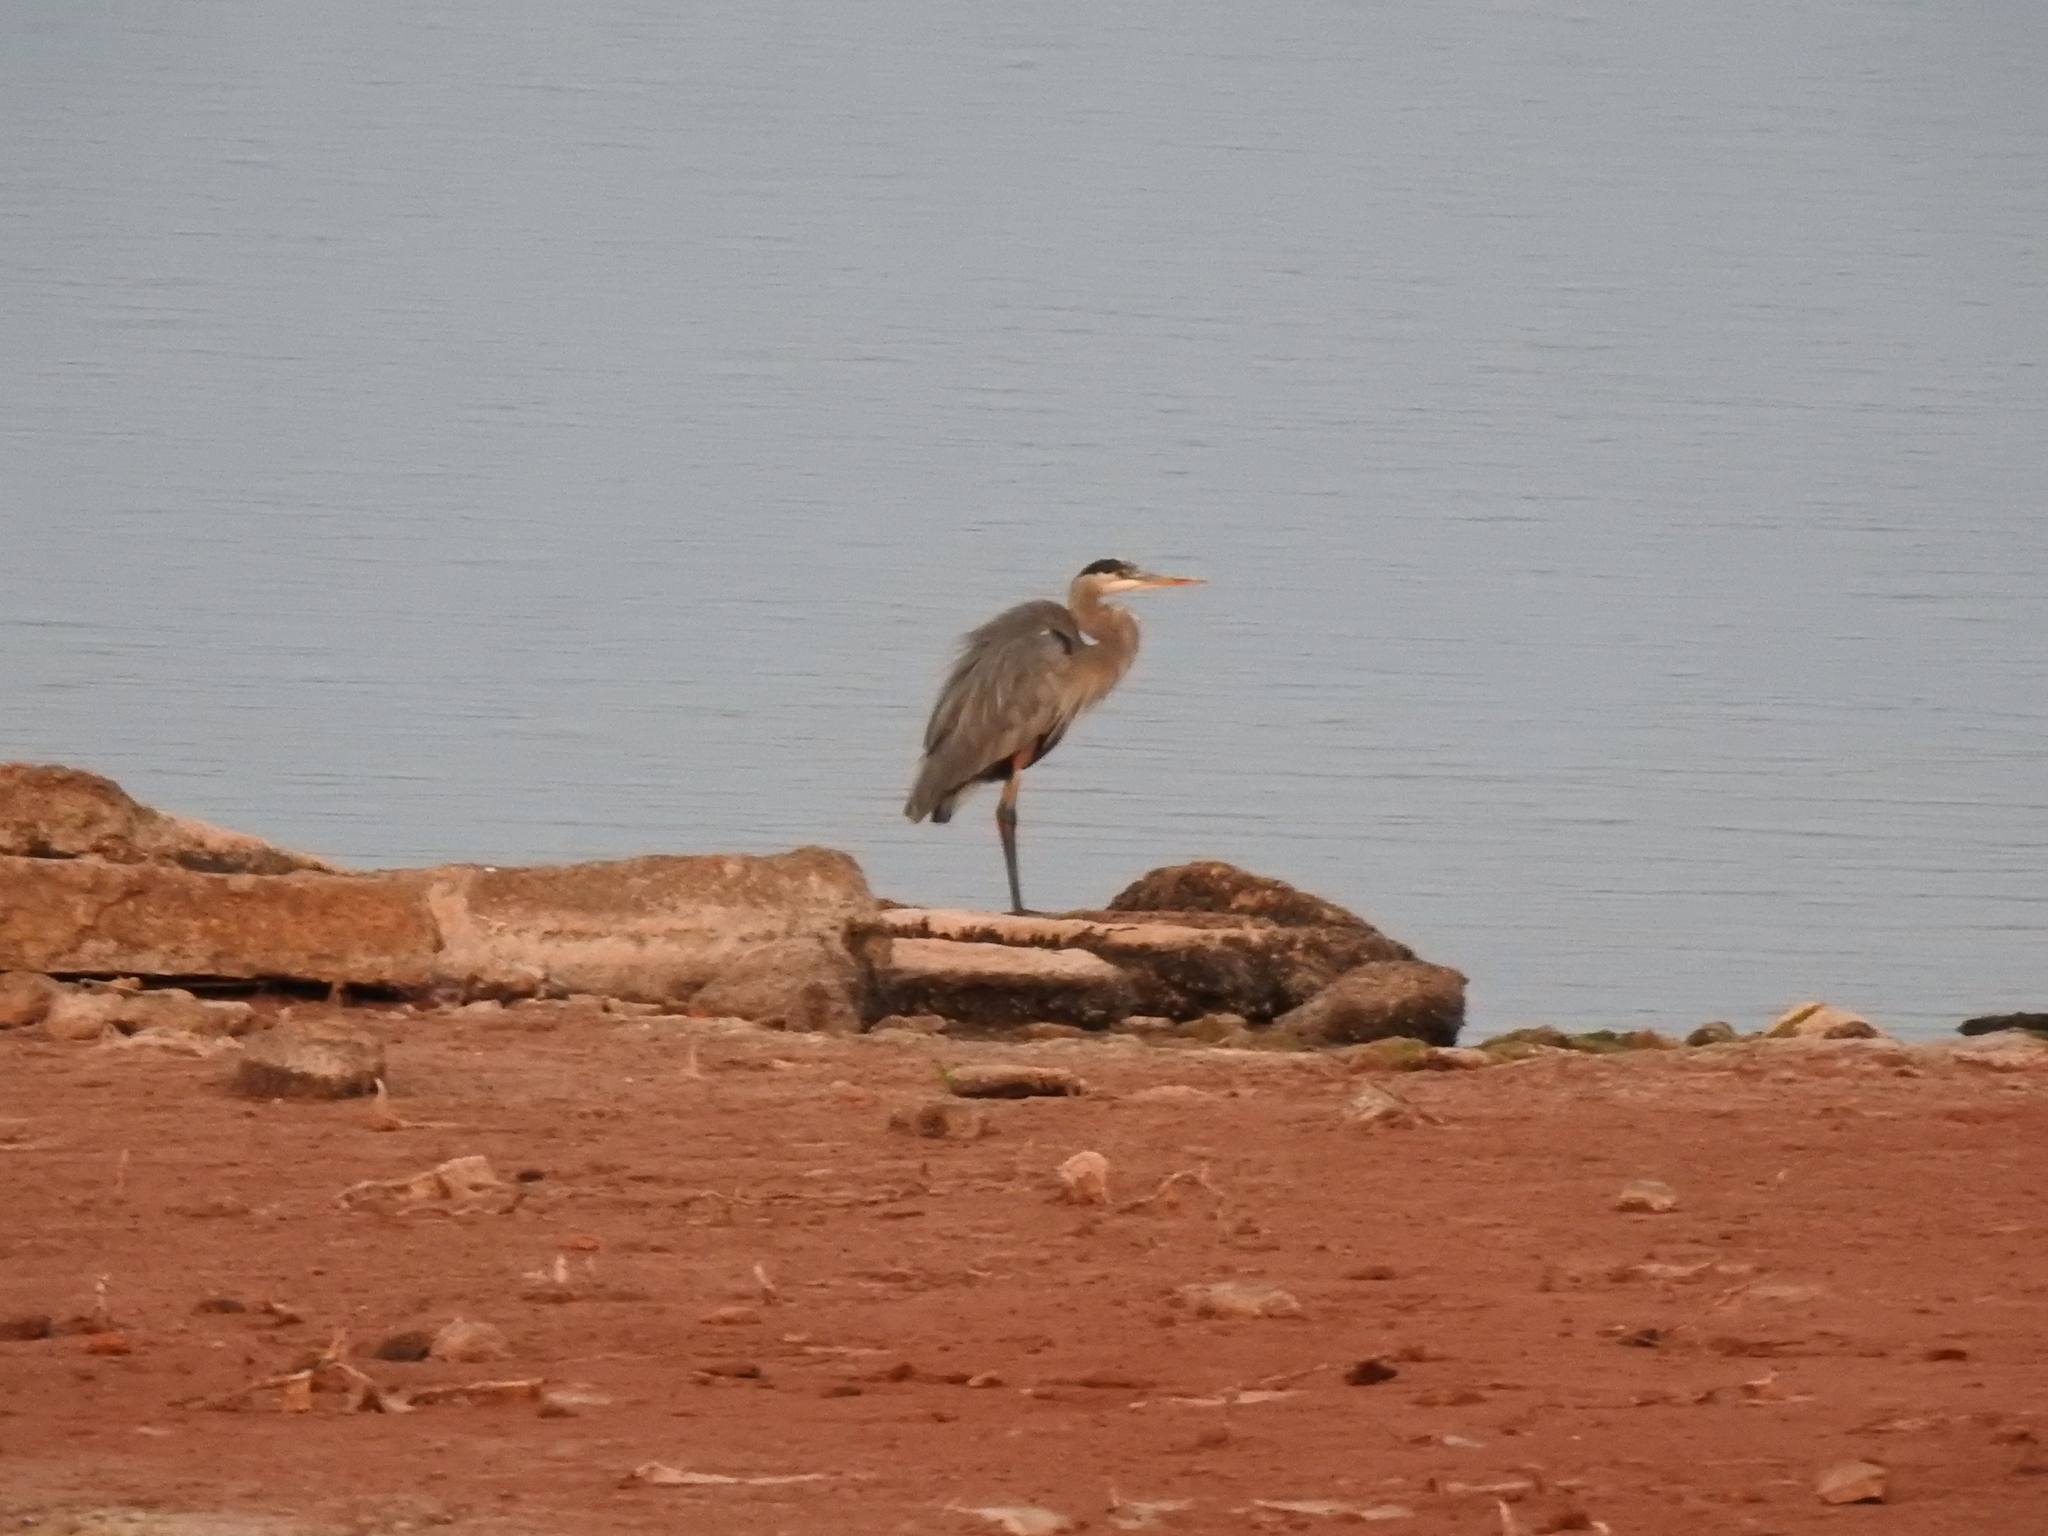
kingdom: Animalia
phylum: Chordata
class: Aves
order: Pelecaniformes
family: Ardeidae
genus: Ardea
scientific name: Ardea herodias
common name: Great blue heron
